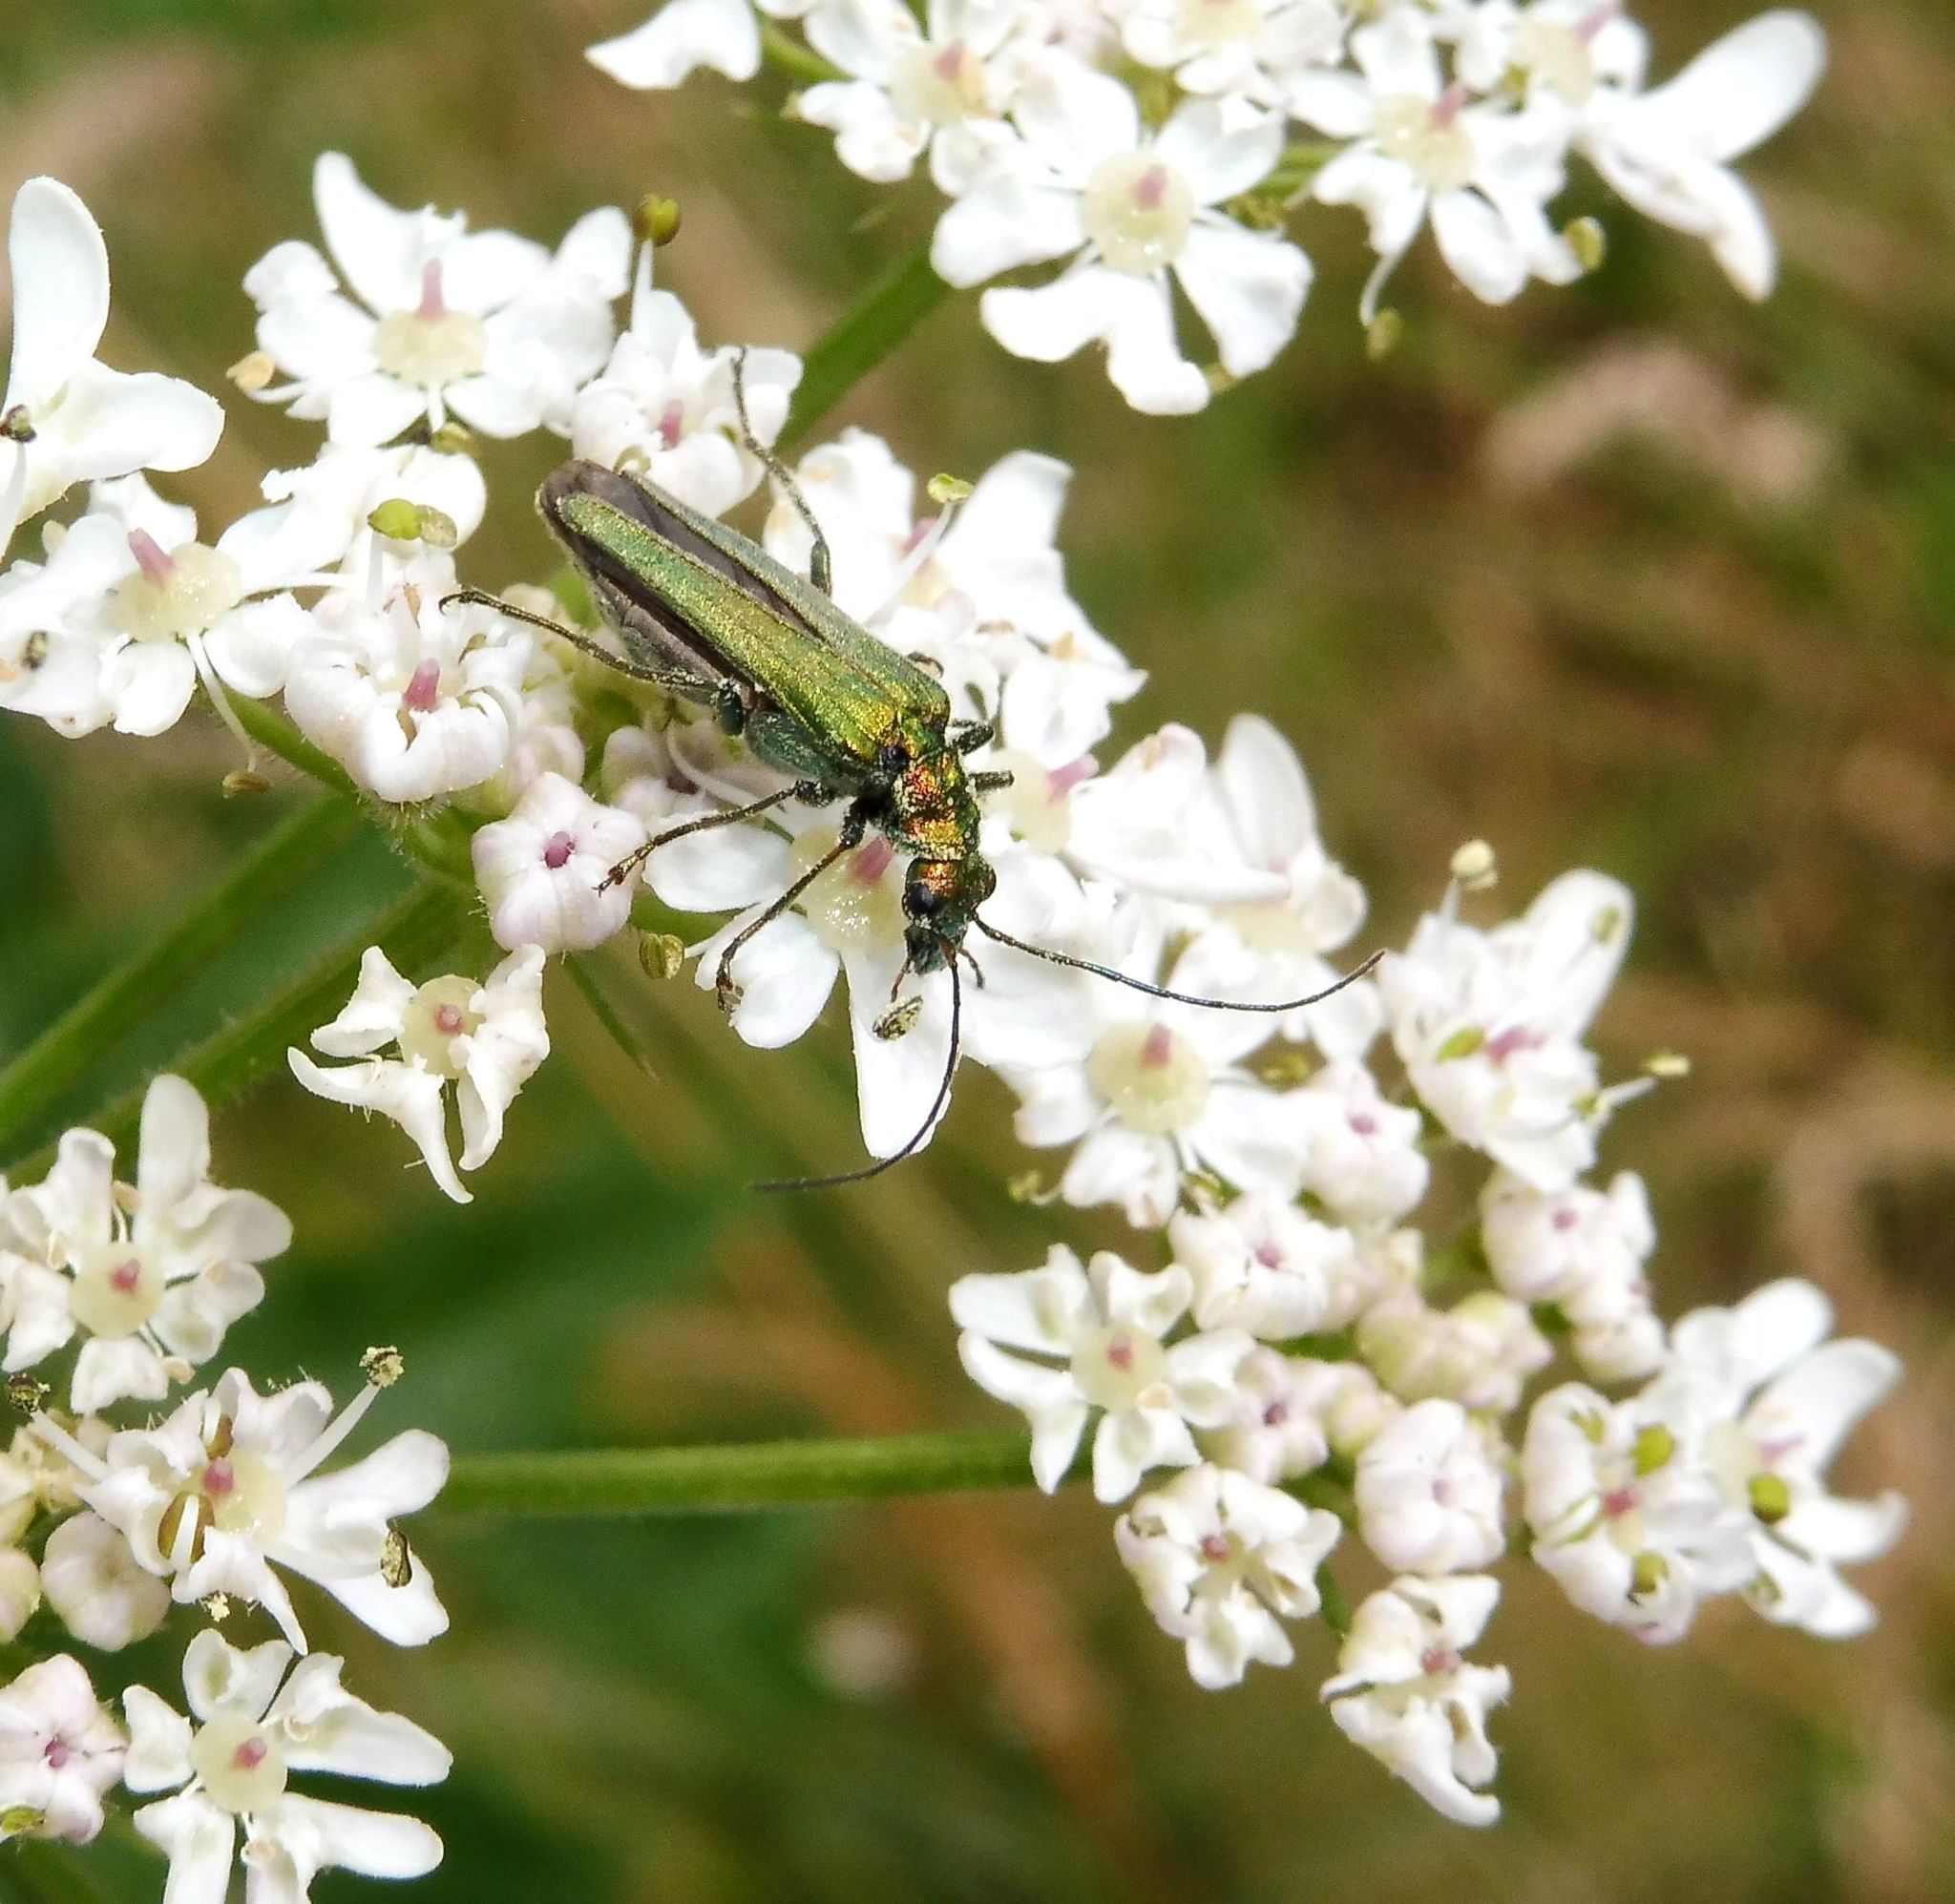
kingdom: Animalia
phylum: Arthropoda
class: Insecta
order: Coleoptera
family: Oedemeridae
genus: Oedemera
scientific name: Oedemera nobilis
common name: Swollen-thighed beetle
